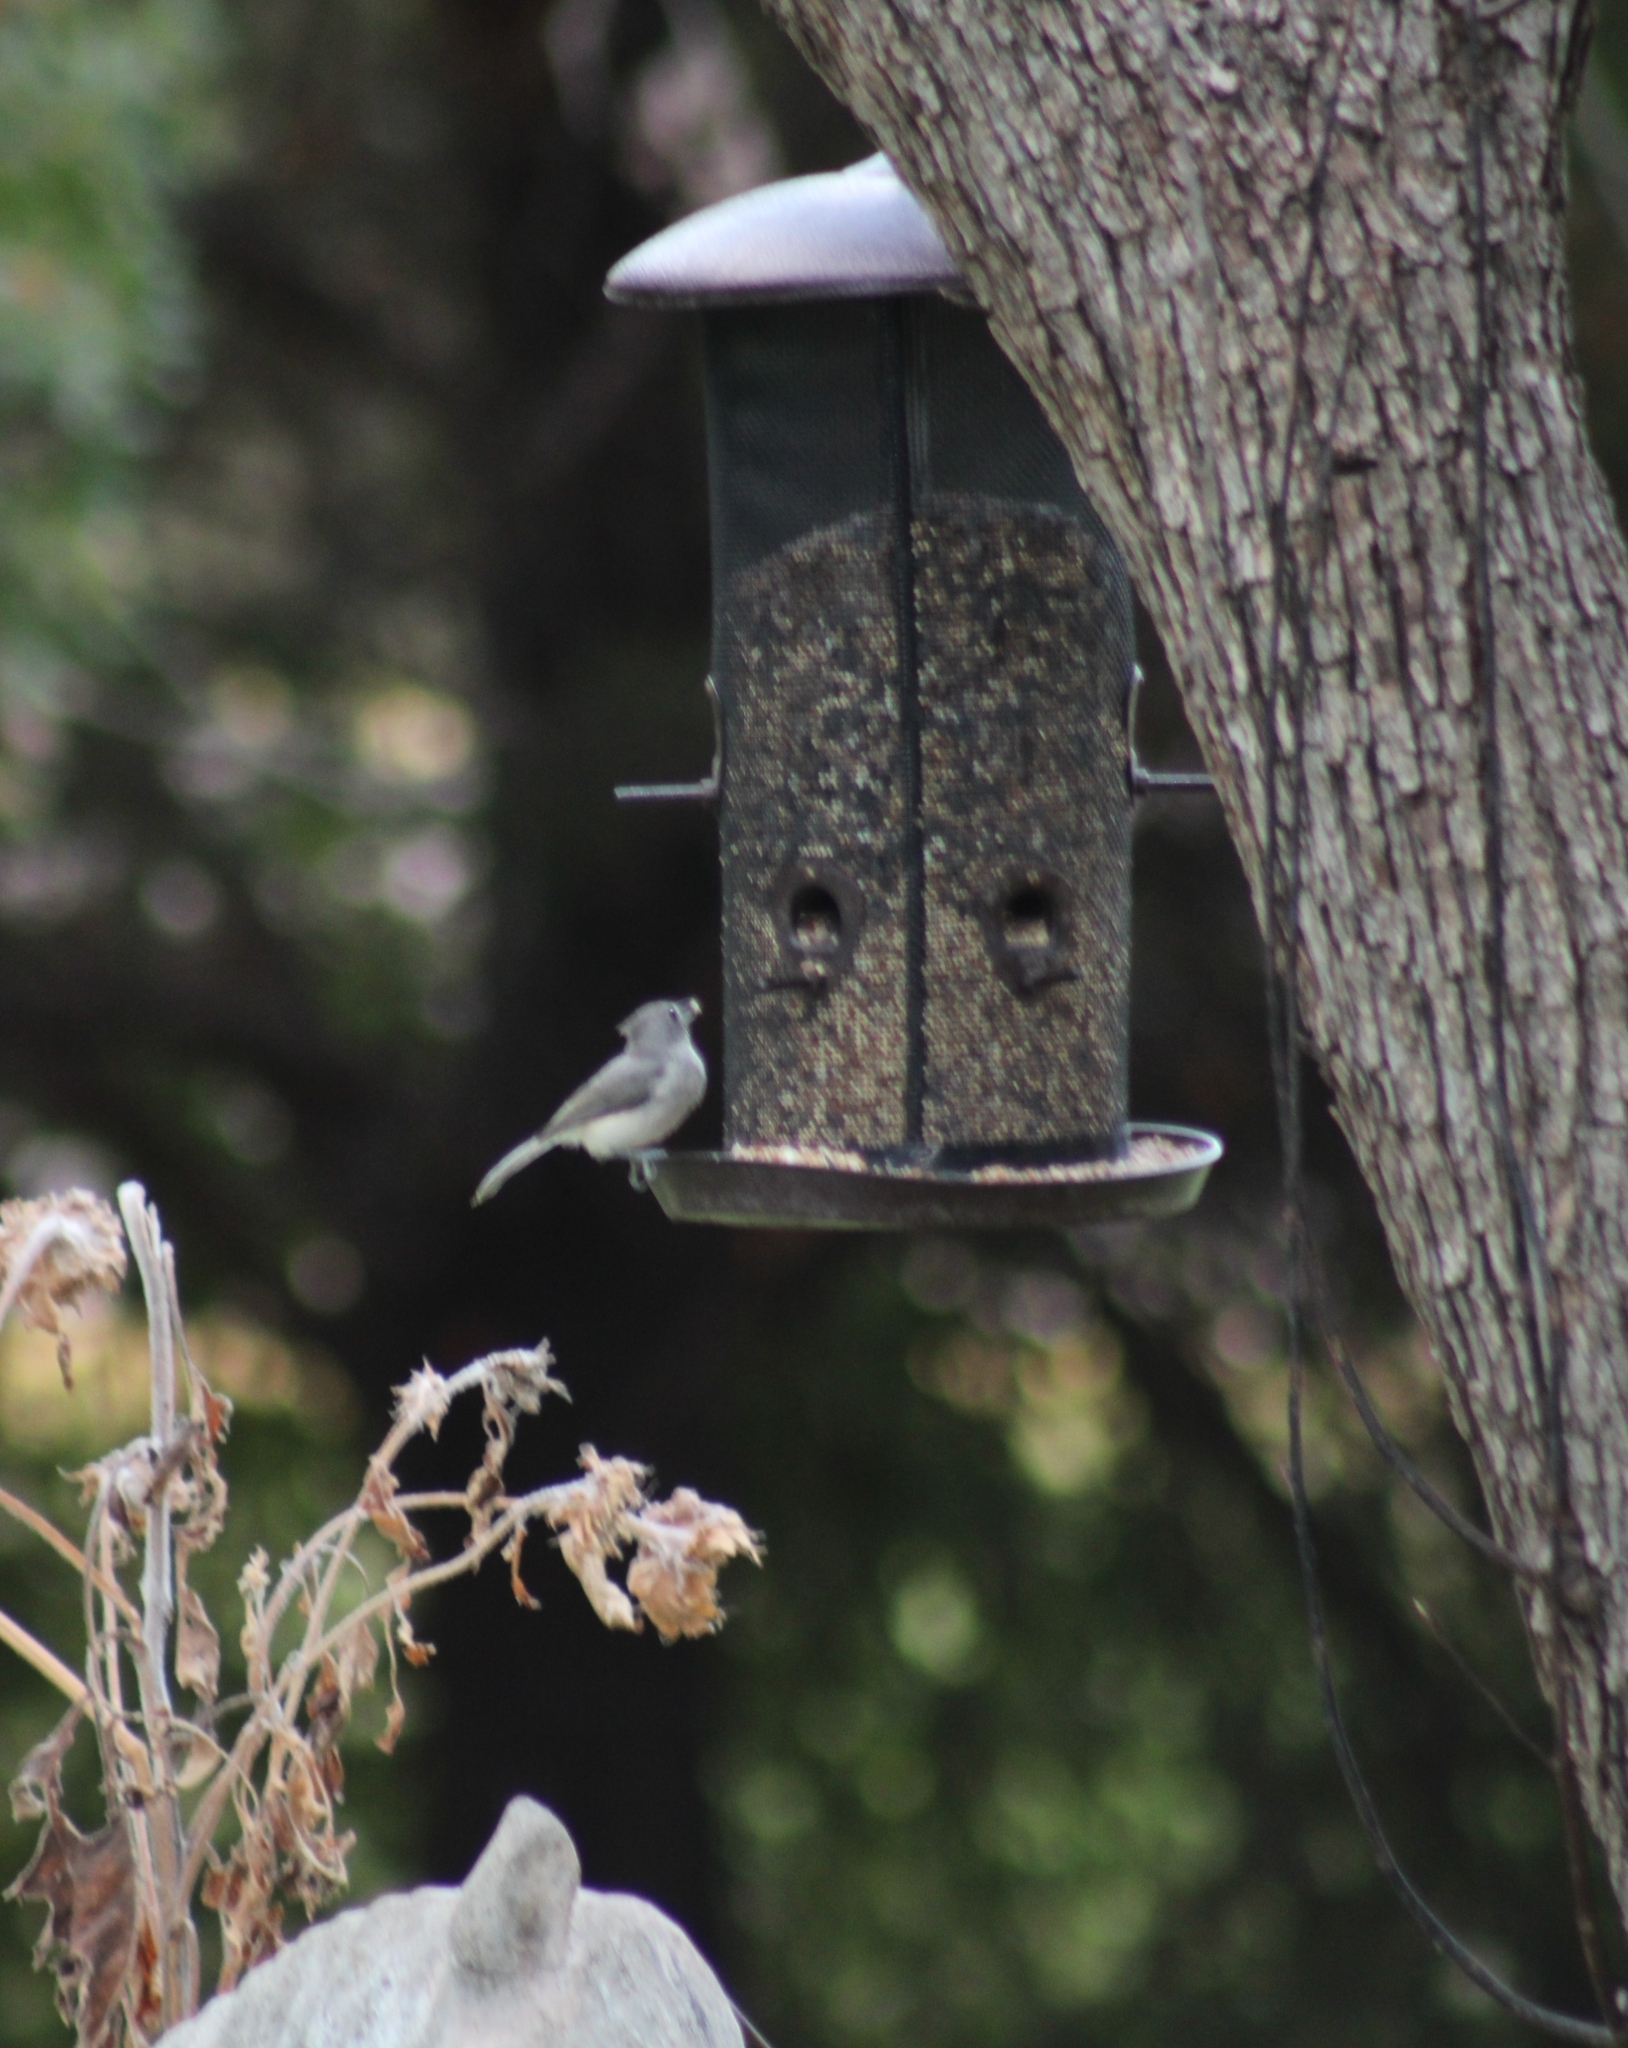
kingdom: Animalia
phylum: Chordata
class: Aves
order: Passeriformes
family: Paridae
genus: Baeolophus
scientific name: Baeolophus bicolor
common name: Tufted titmouse
